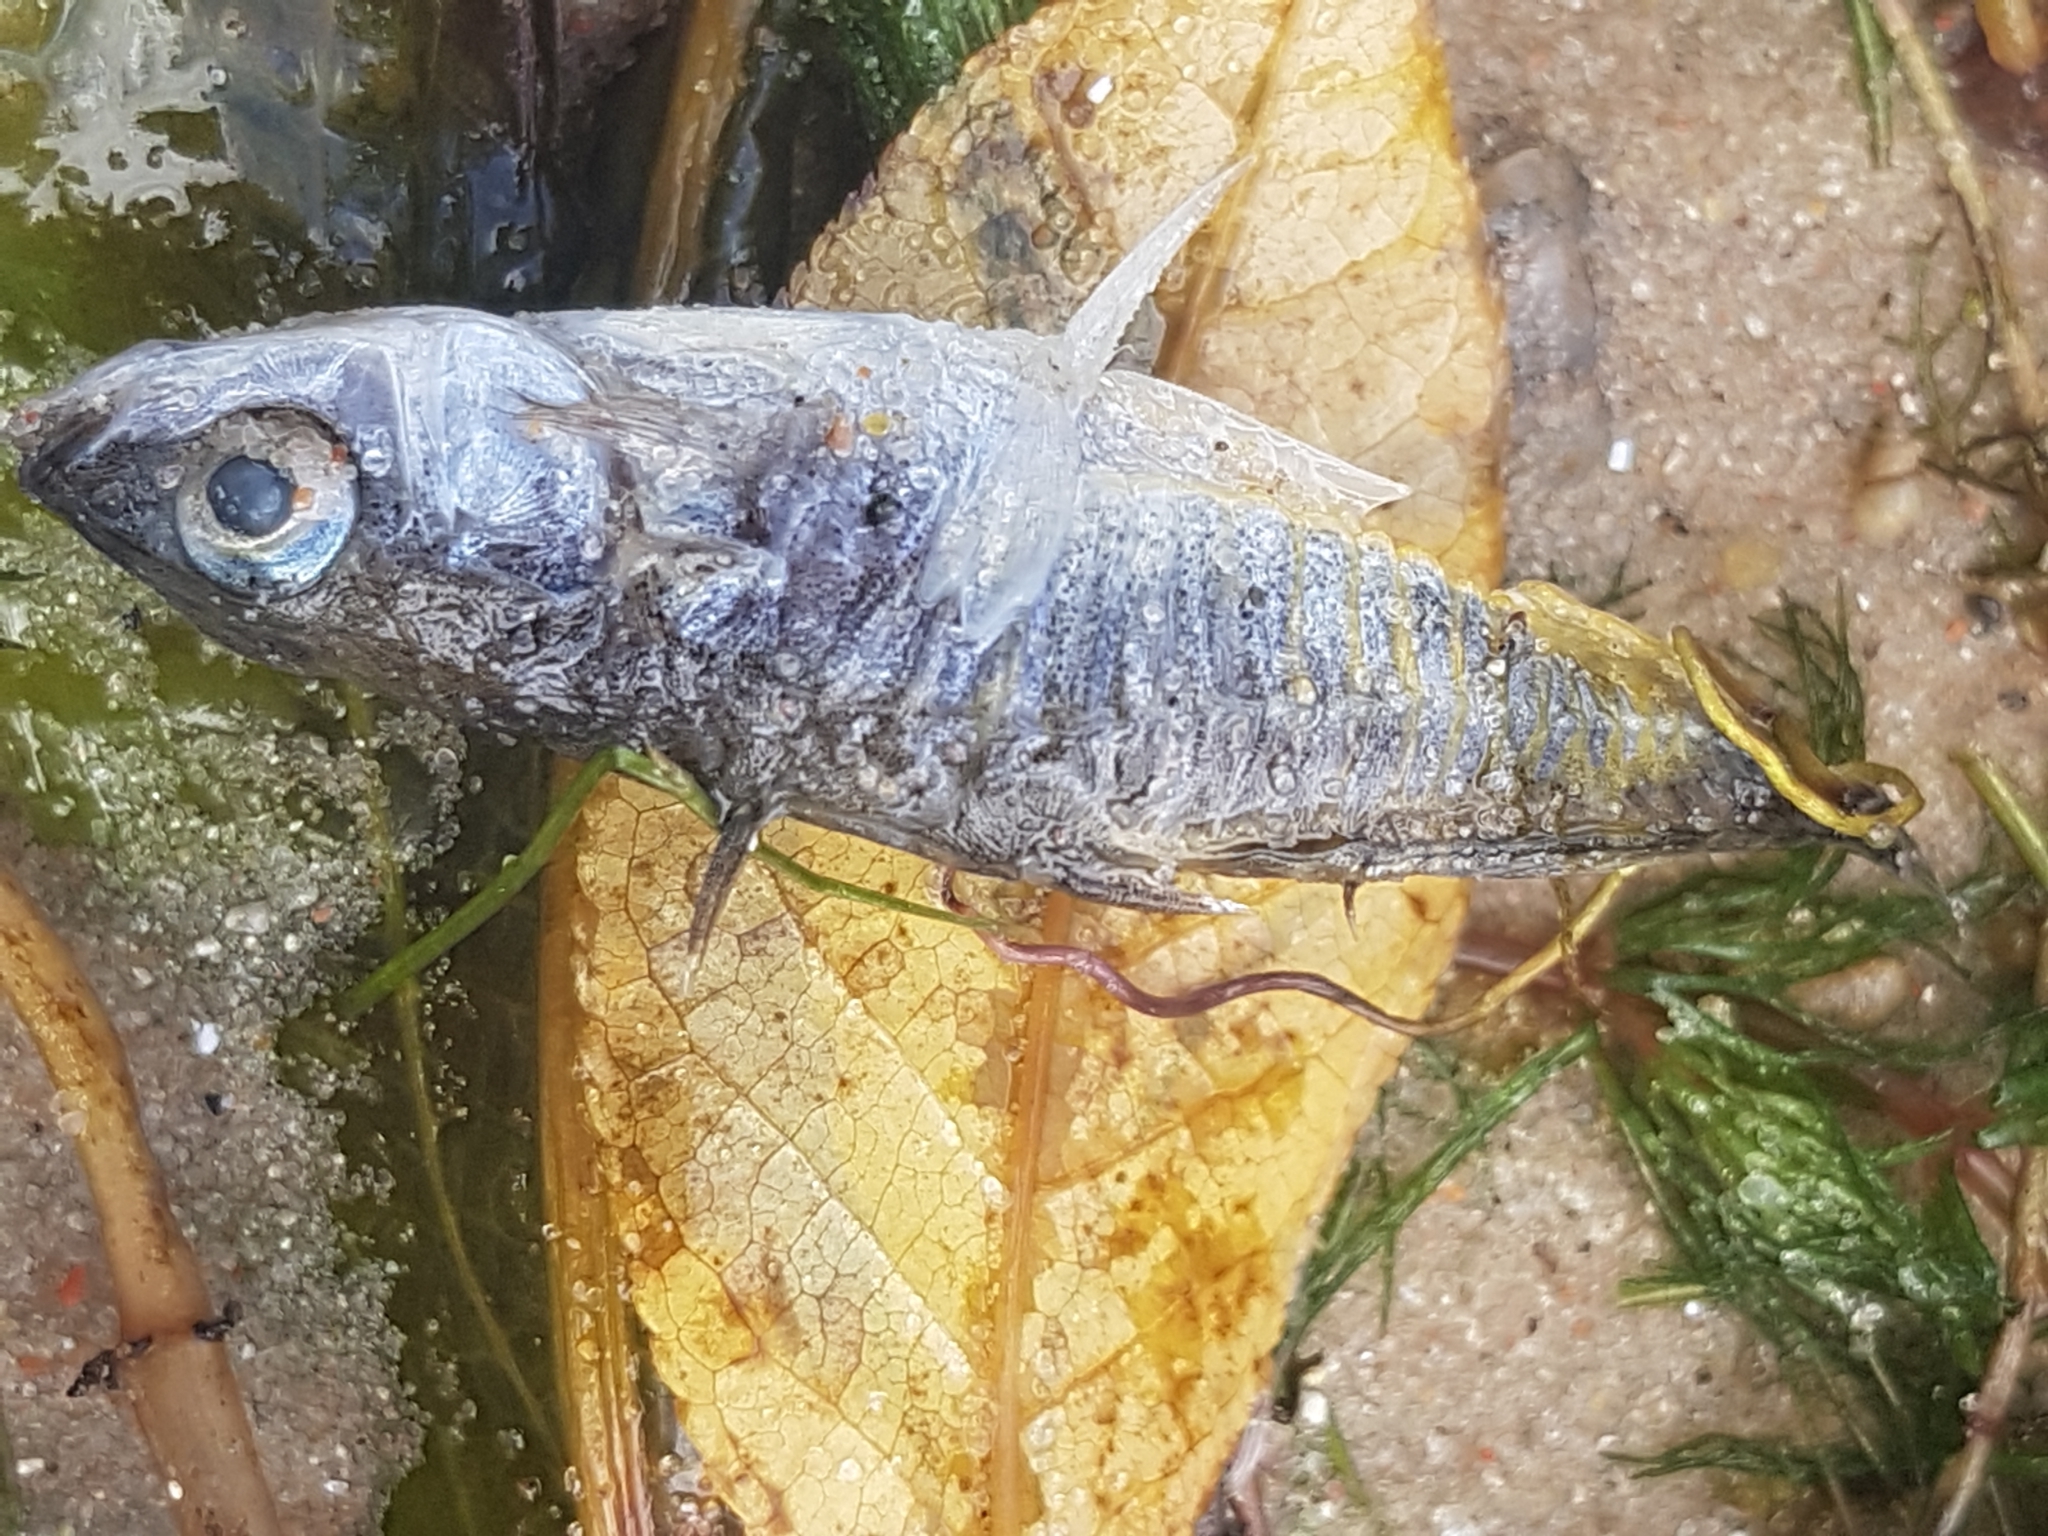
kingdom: Animalia
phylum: Chordata
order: Gasterosteiformes
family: Gasterosteidae
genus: Gasterosteus
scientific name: Gasterosteus aculeatus
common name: Three-spined stickleback
